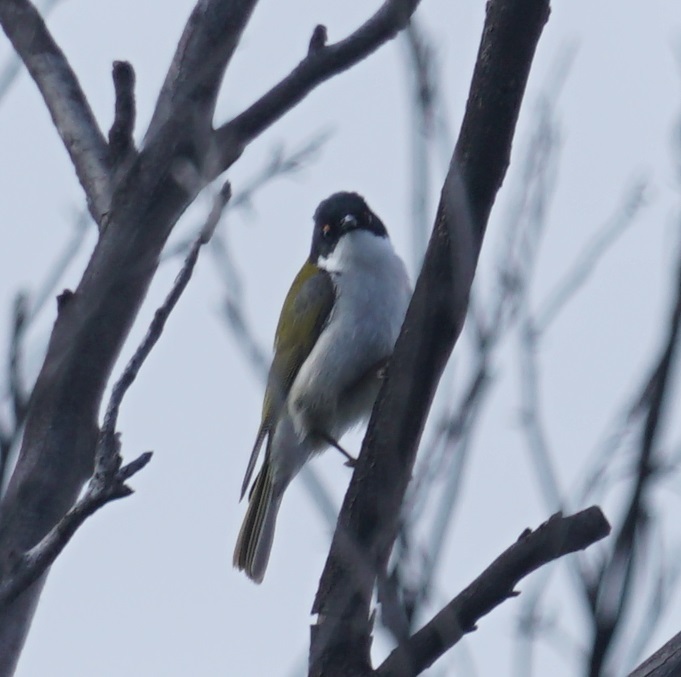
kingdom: Animalia
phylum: Chordata
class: Aves
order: Passeriformes
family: Meliphagidae
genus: Melithreptus
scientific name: Melithreptus lunatus
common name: White-naped honeyeater
